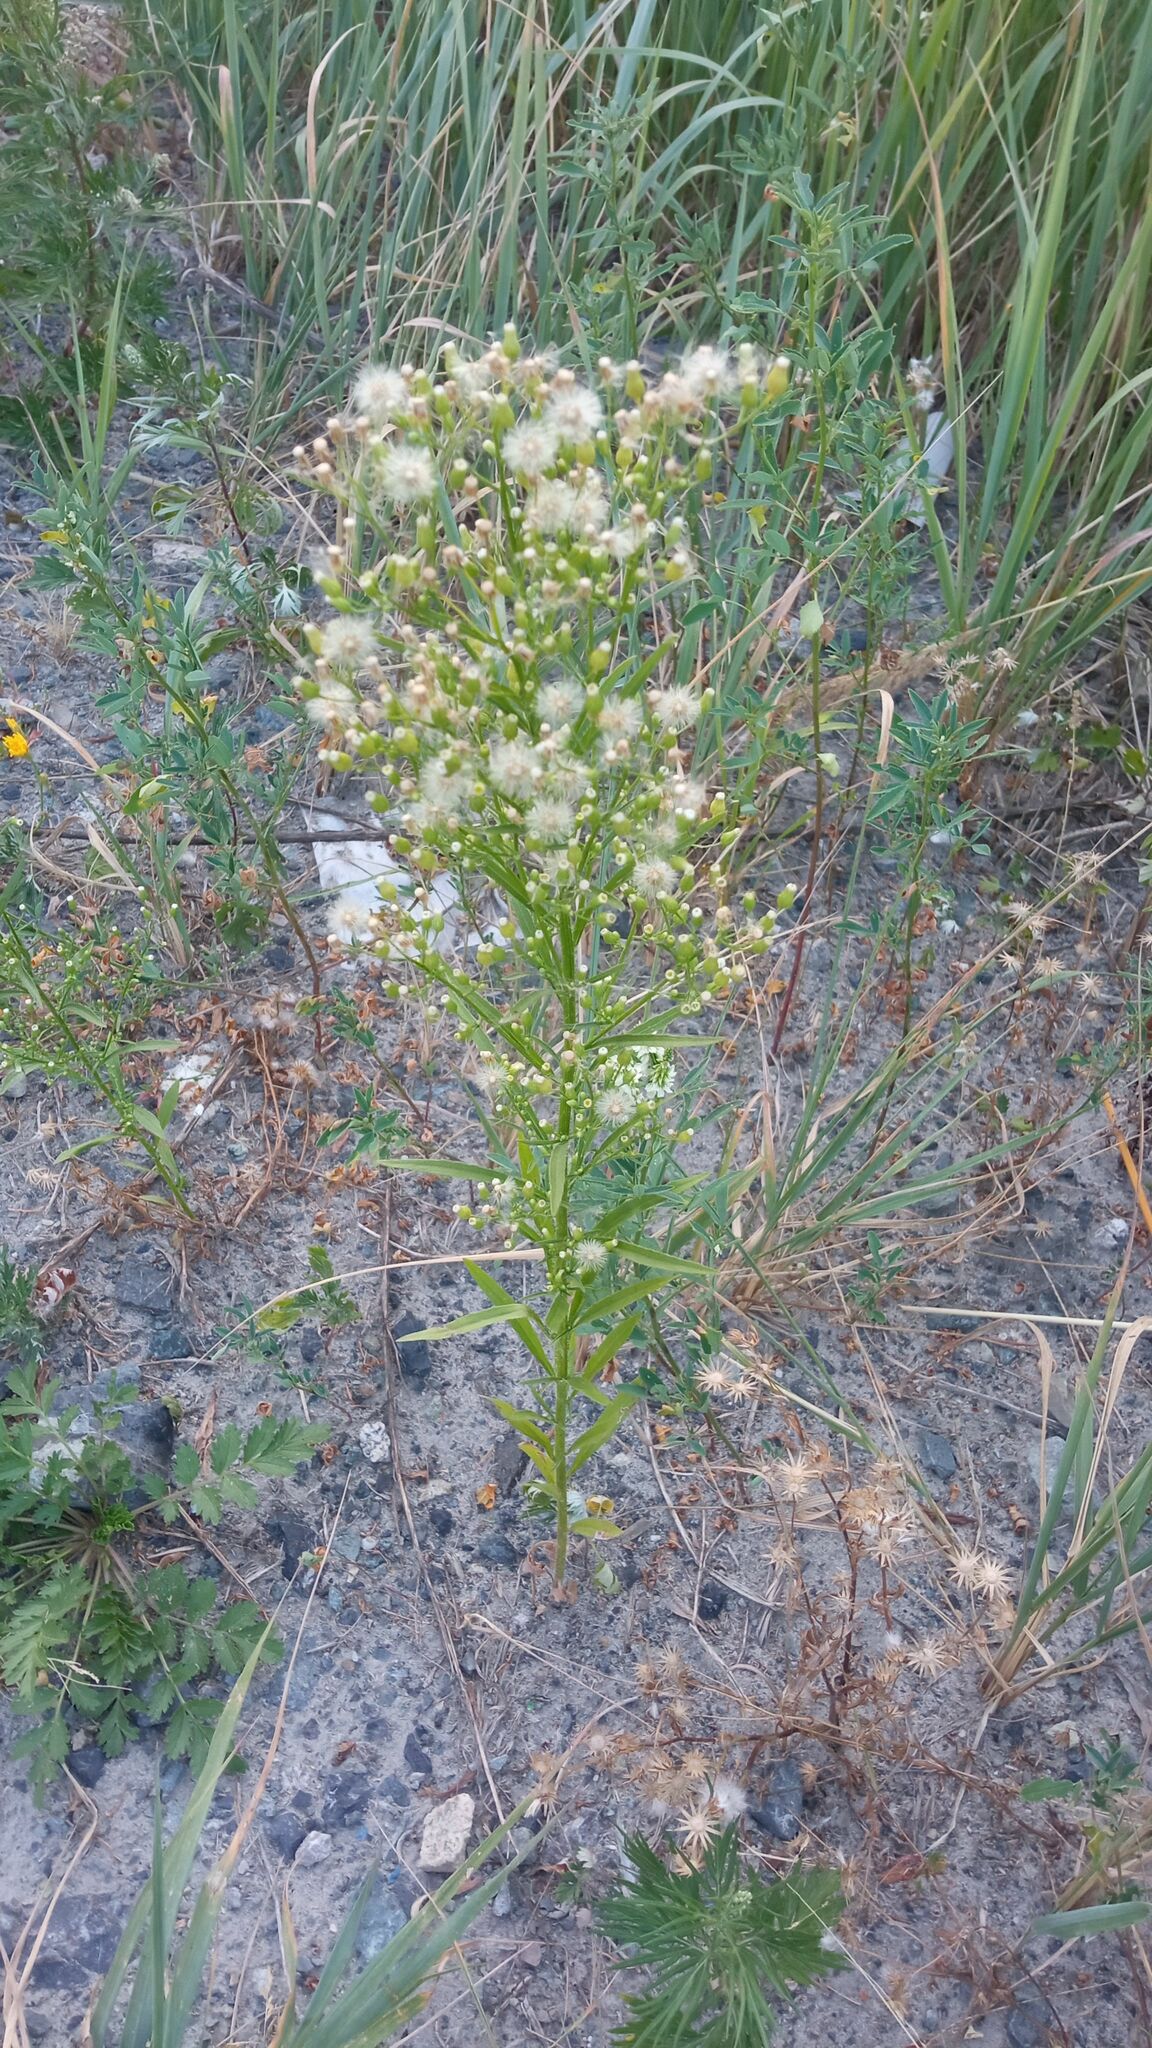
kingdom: Plantae
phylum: Tracheophyta
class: Magnoliopsida
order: Asterales
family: Asteraceae
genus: Erigeron
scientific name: Erigeron canadensis
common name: Canadian fleabane
